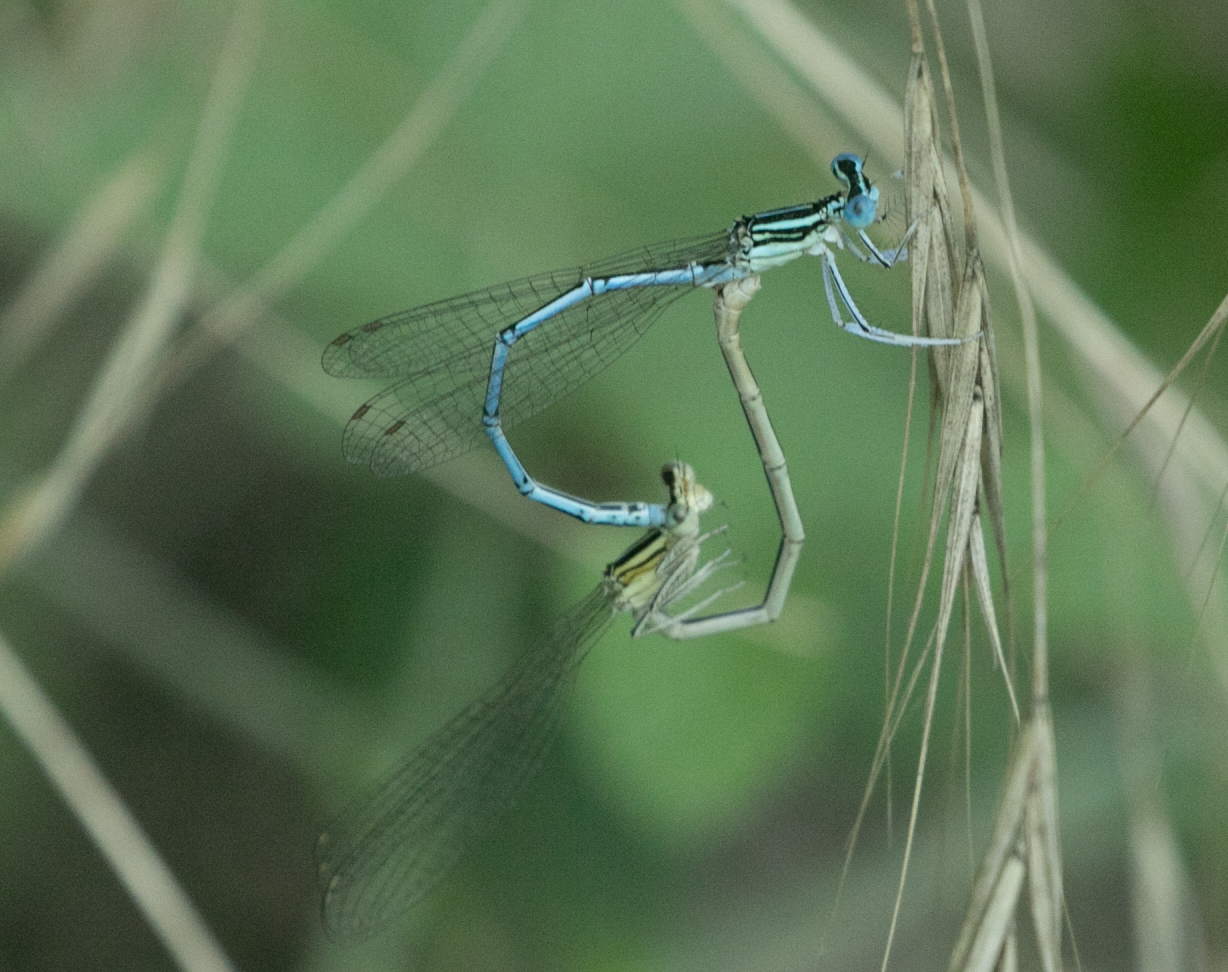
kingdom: Animalia
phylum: Arthropoda
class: Insecta
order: Odonata
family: Platycnemididae
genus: Platycnemis
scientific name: Platycnemis pennipes
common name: White-legged damselfly
